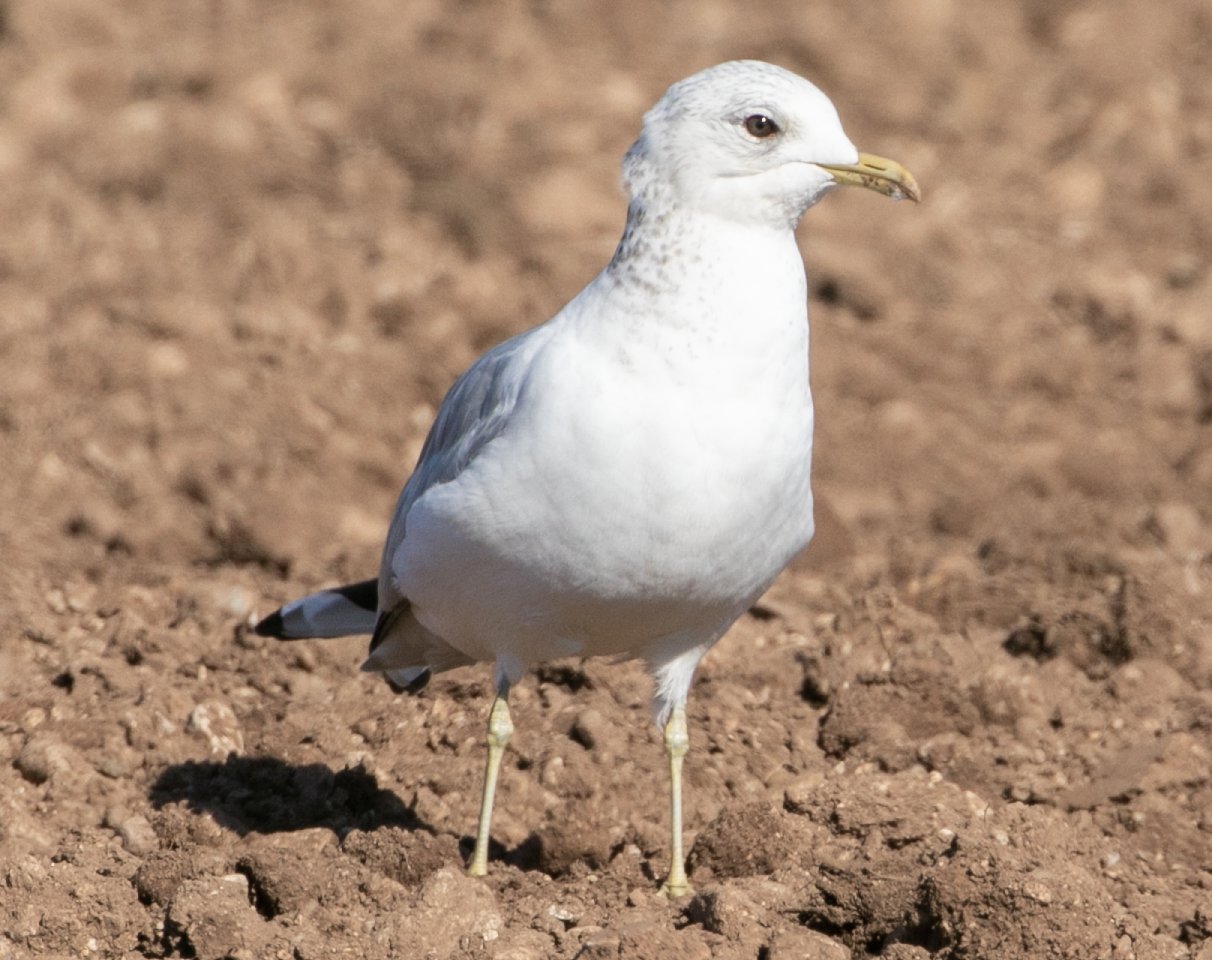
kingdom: Animalia
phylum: Chordata
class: Aves
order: Charadriiformes
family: Laridae
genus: Larus
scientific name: Larus canus
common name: Mew gull
